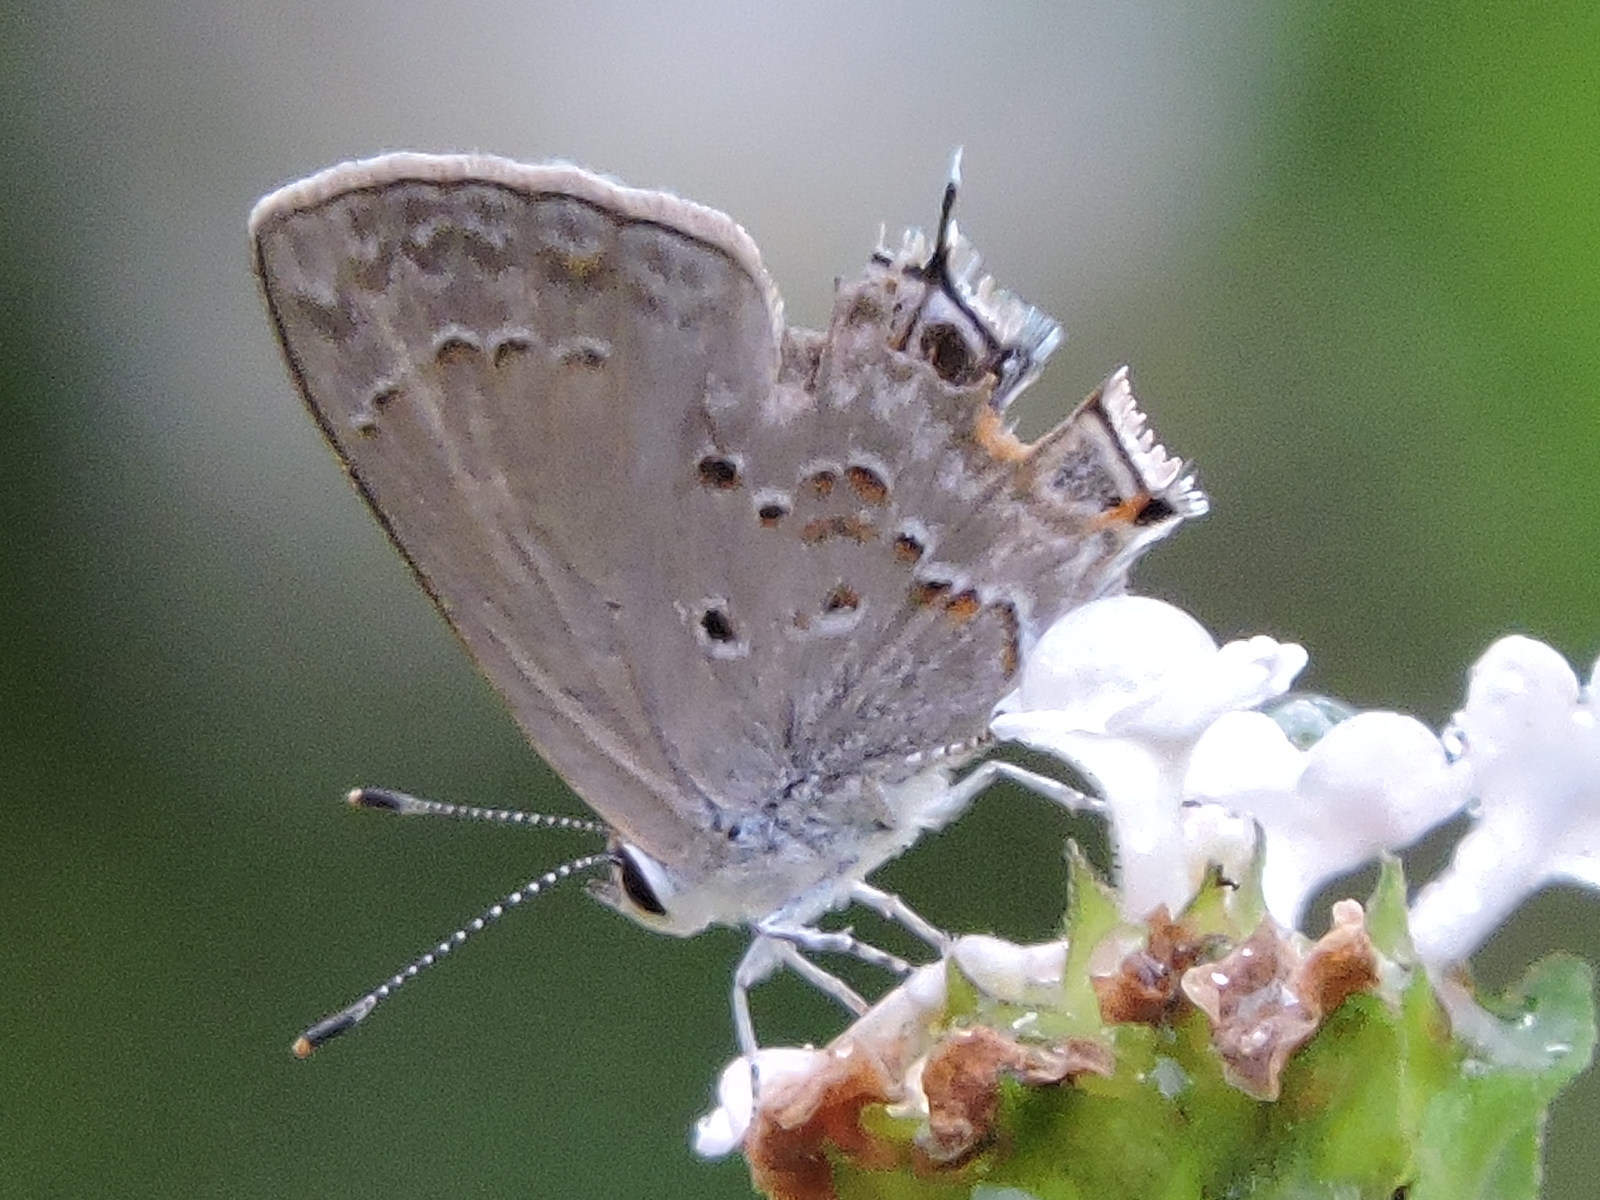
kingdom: Animalia
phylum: Arthropoda
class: Insecta
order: Lepidoptera
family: Lycaenidae
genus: Callicista
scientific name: Callicista columella
